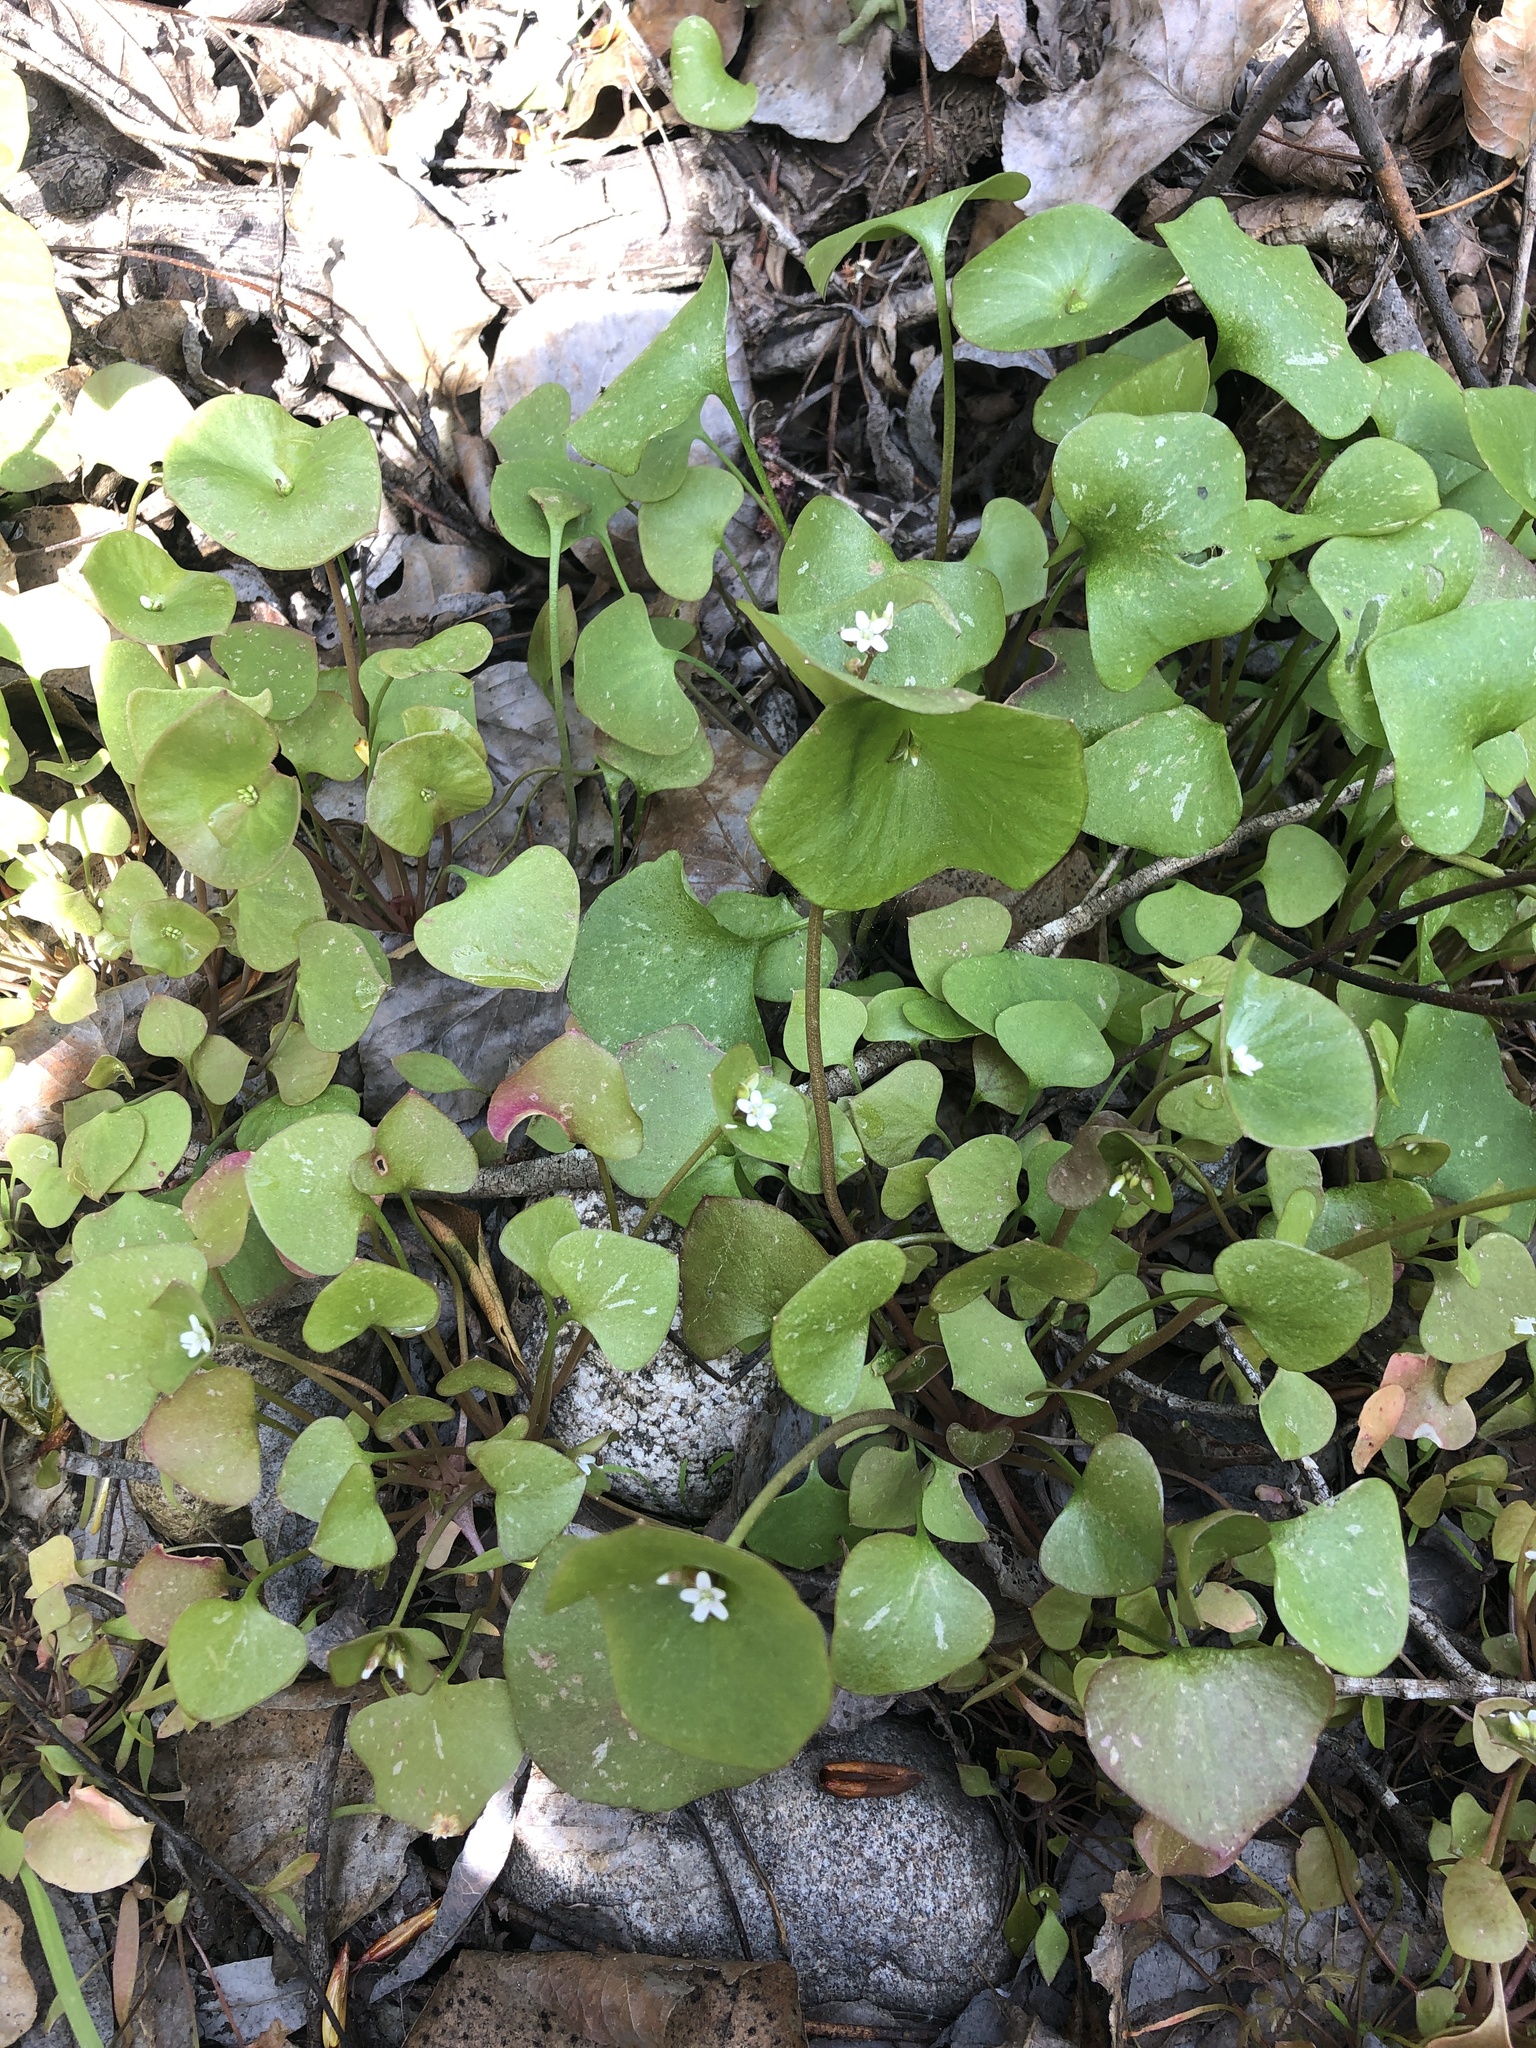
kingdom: Plantae
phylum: Tracheophyta
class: Magnoliopsida
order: Caryophyllales
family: Montiaceae
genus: Claytonia
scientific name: Claytonia perfoliata
